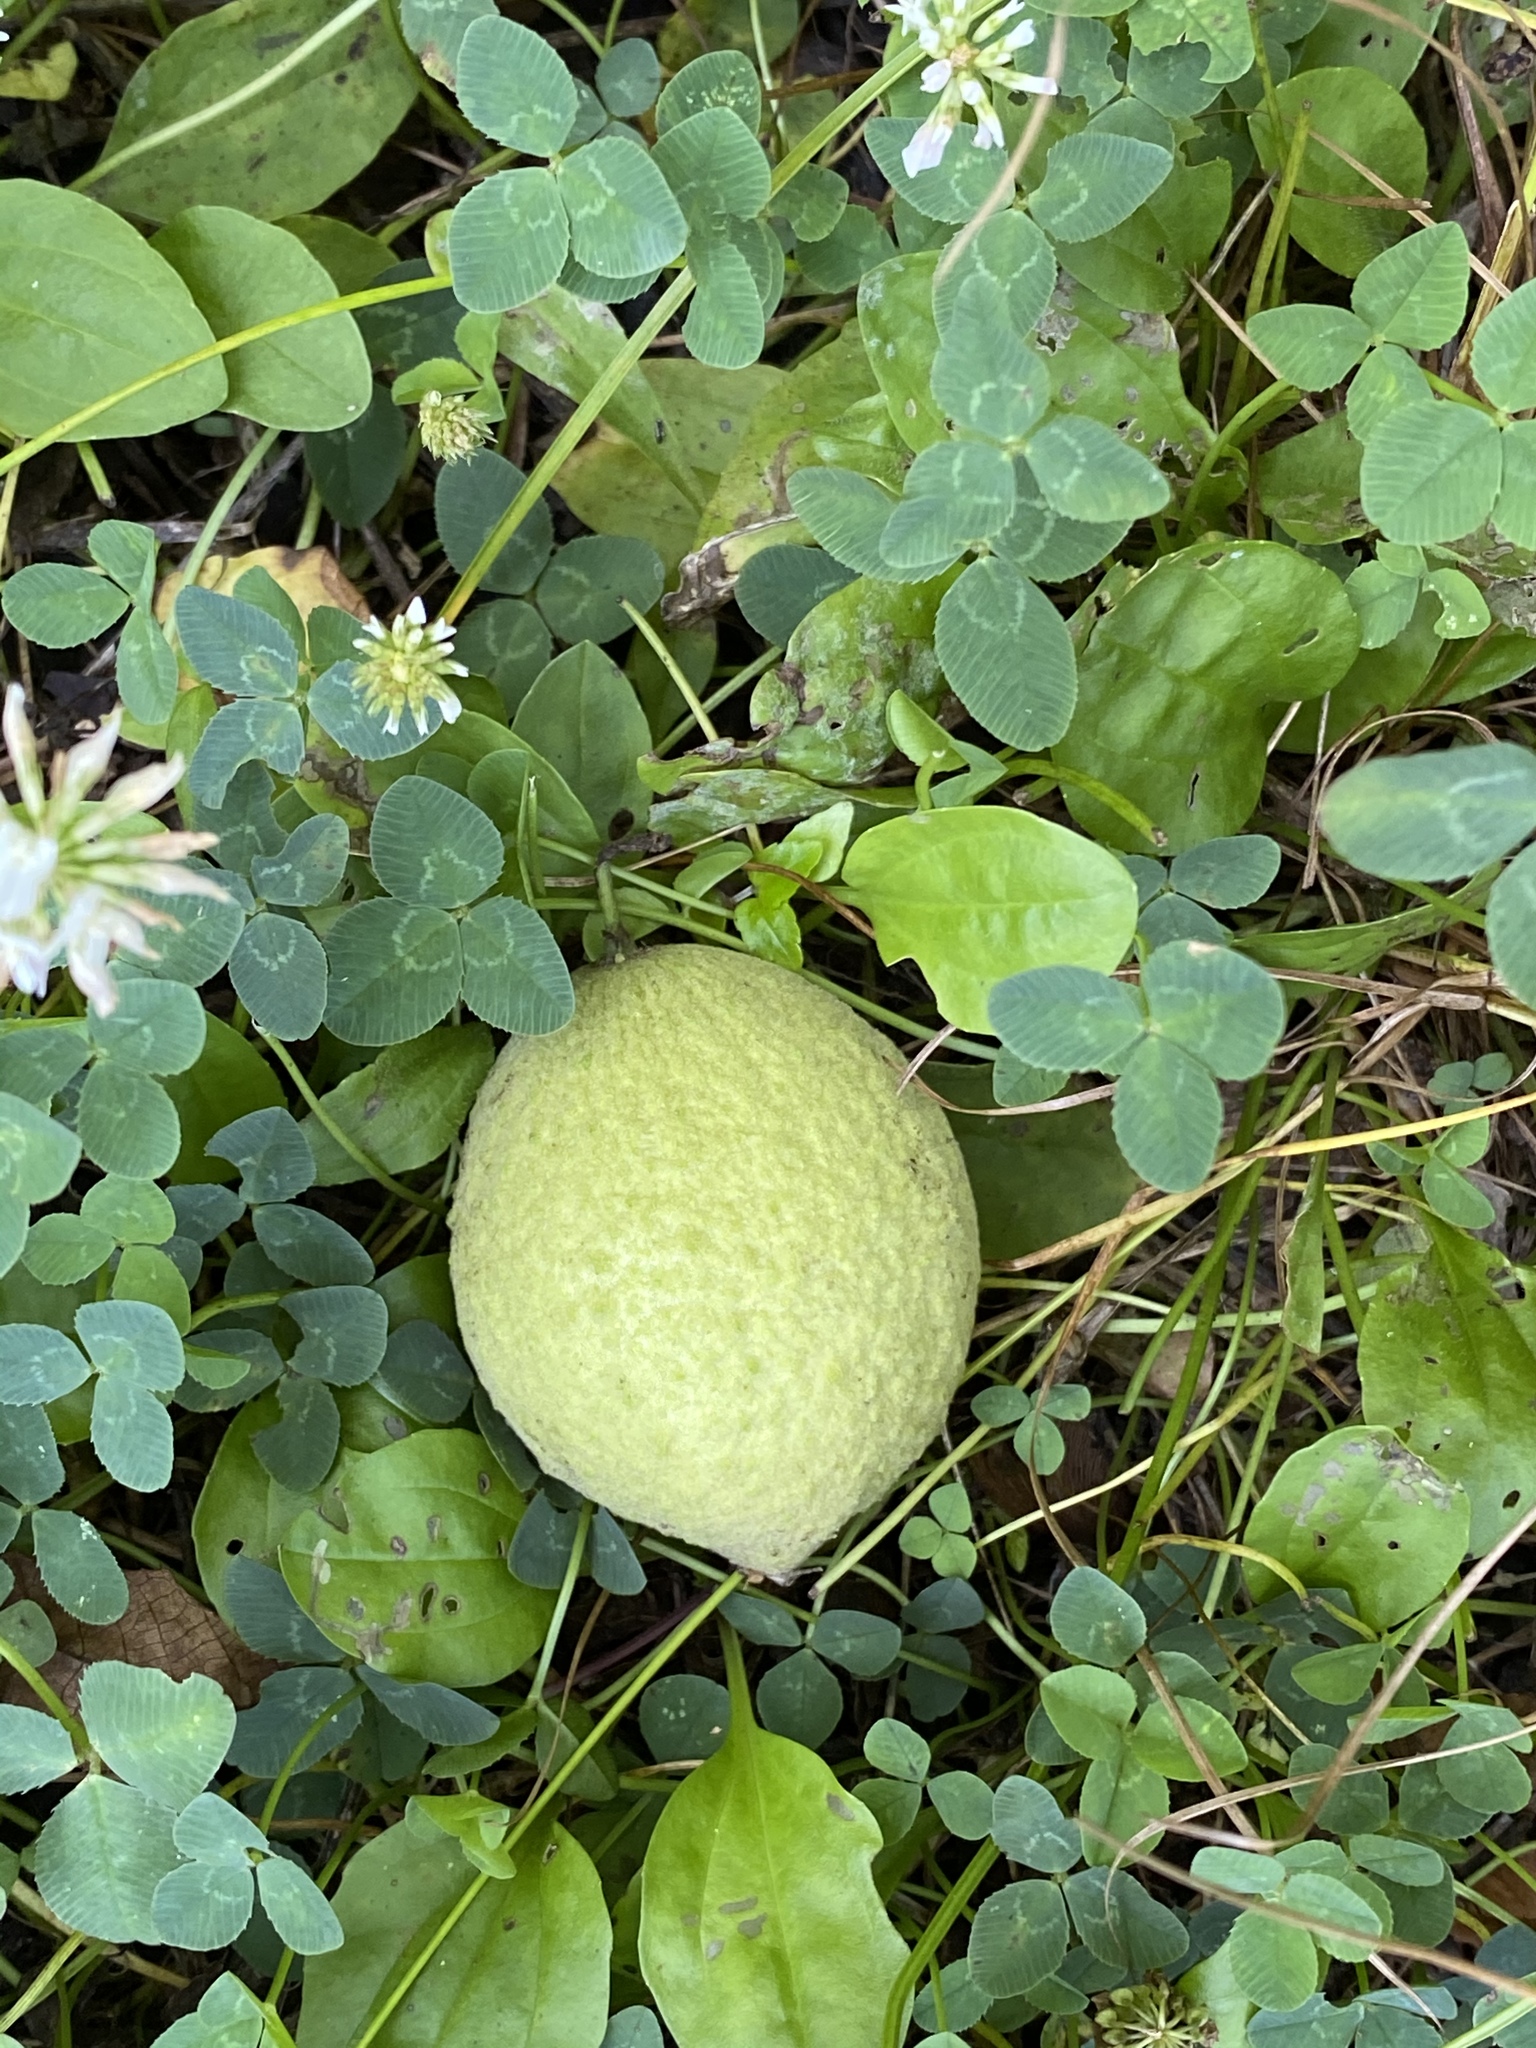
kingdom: Plantae
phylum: Tracheophyta
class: Magnoliopsida
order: Fagales
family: Juglandaceae
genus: Juglans
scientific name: Juglans nigra
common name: Black walnut
